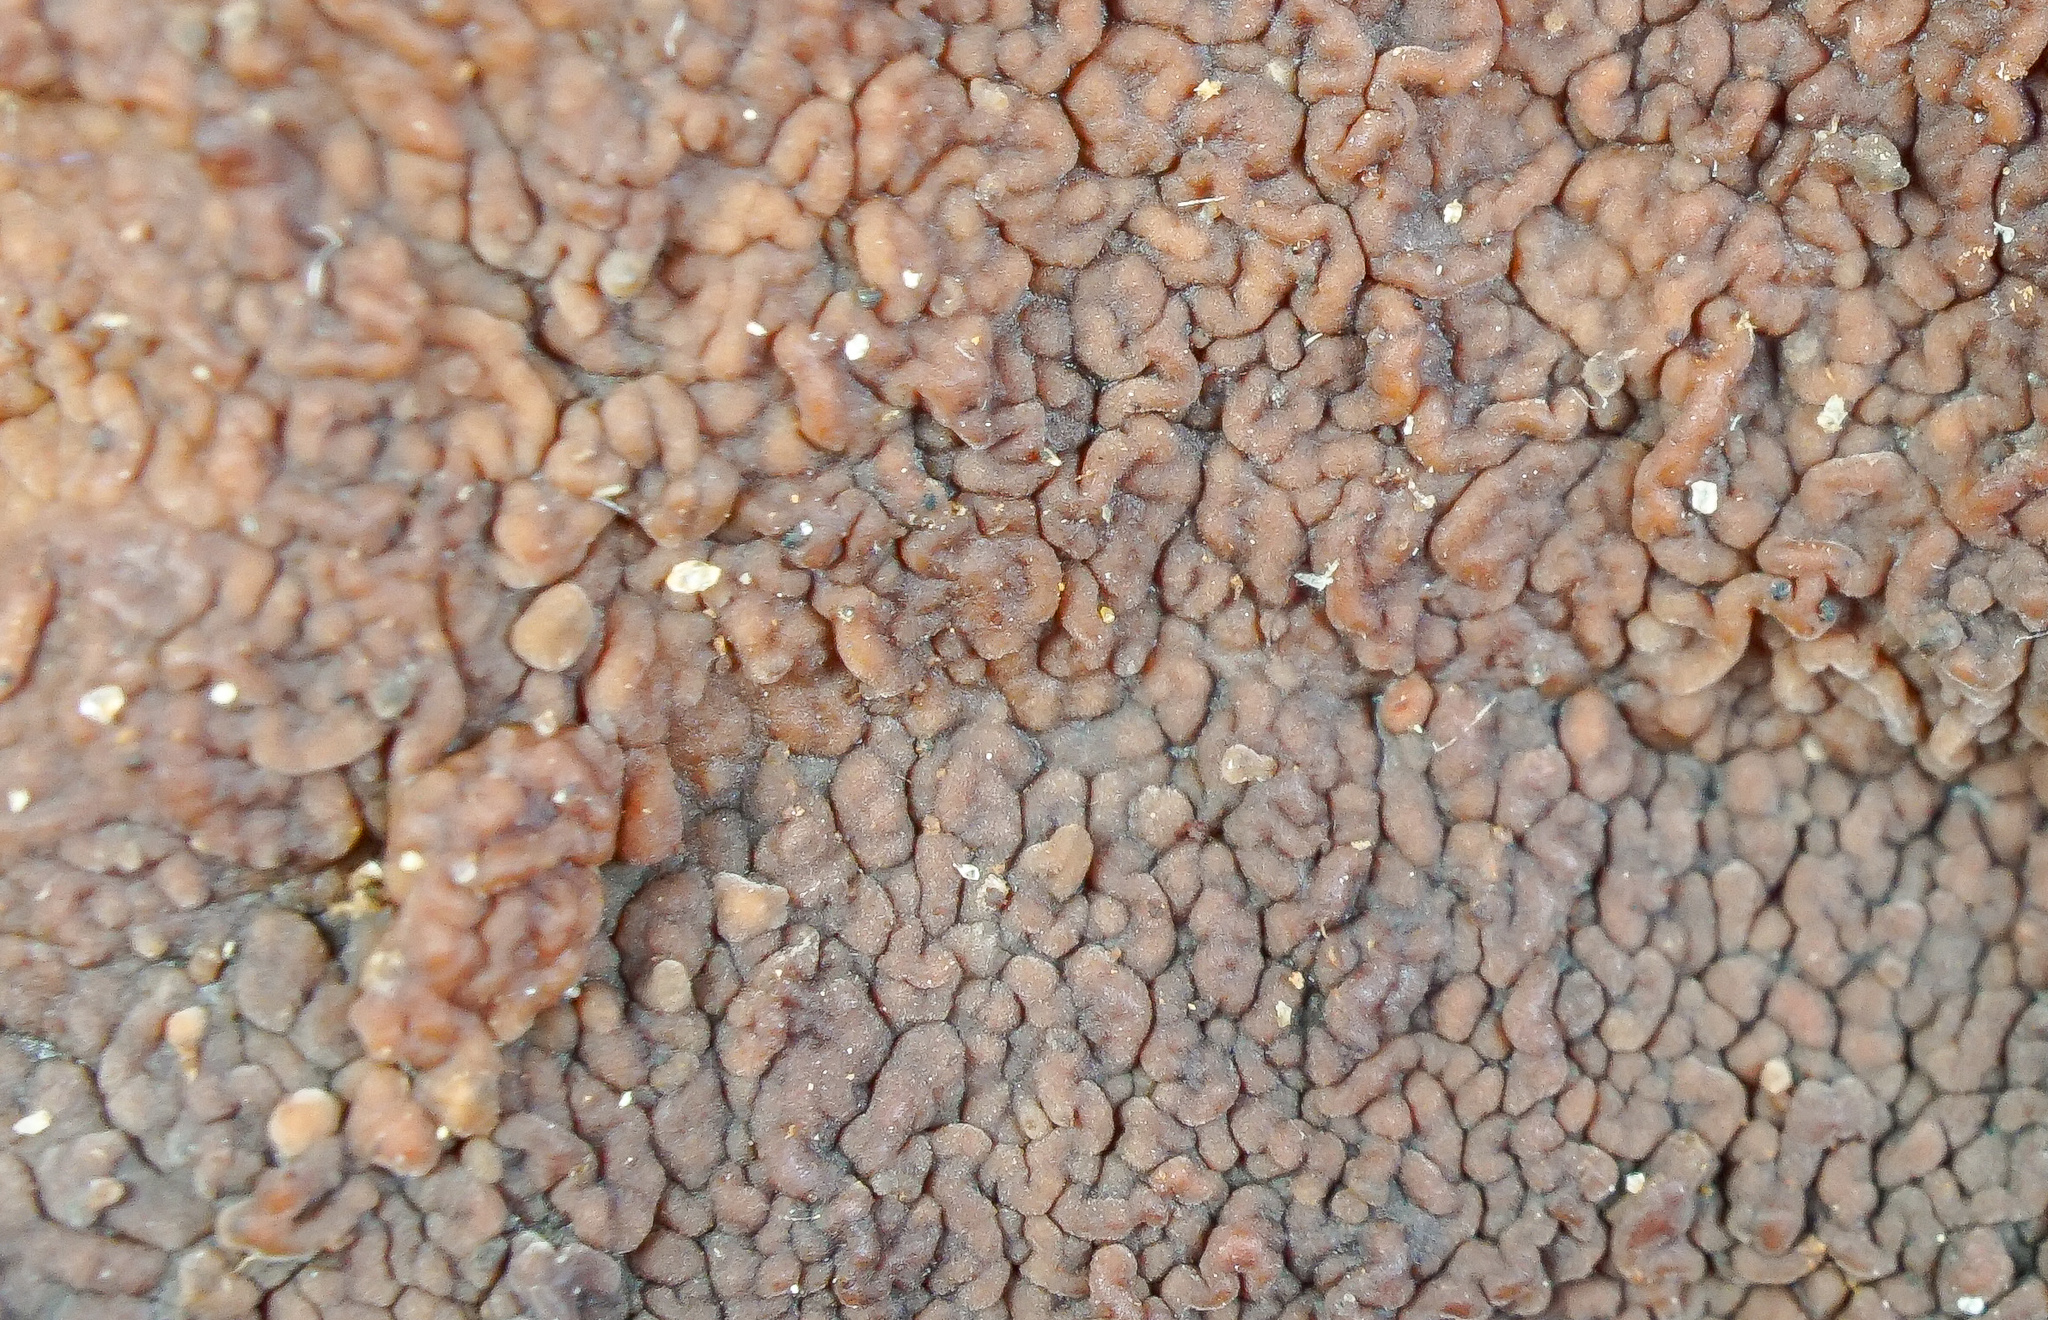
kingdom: Fungi
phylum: Basidiomycota
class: Agaricomycetes
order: Corticiales
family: Punctulariaceae
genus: Punctularia
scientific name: Punctularia strigosozonata
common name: White-rot fungus
